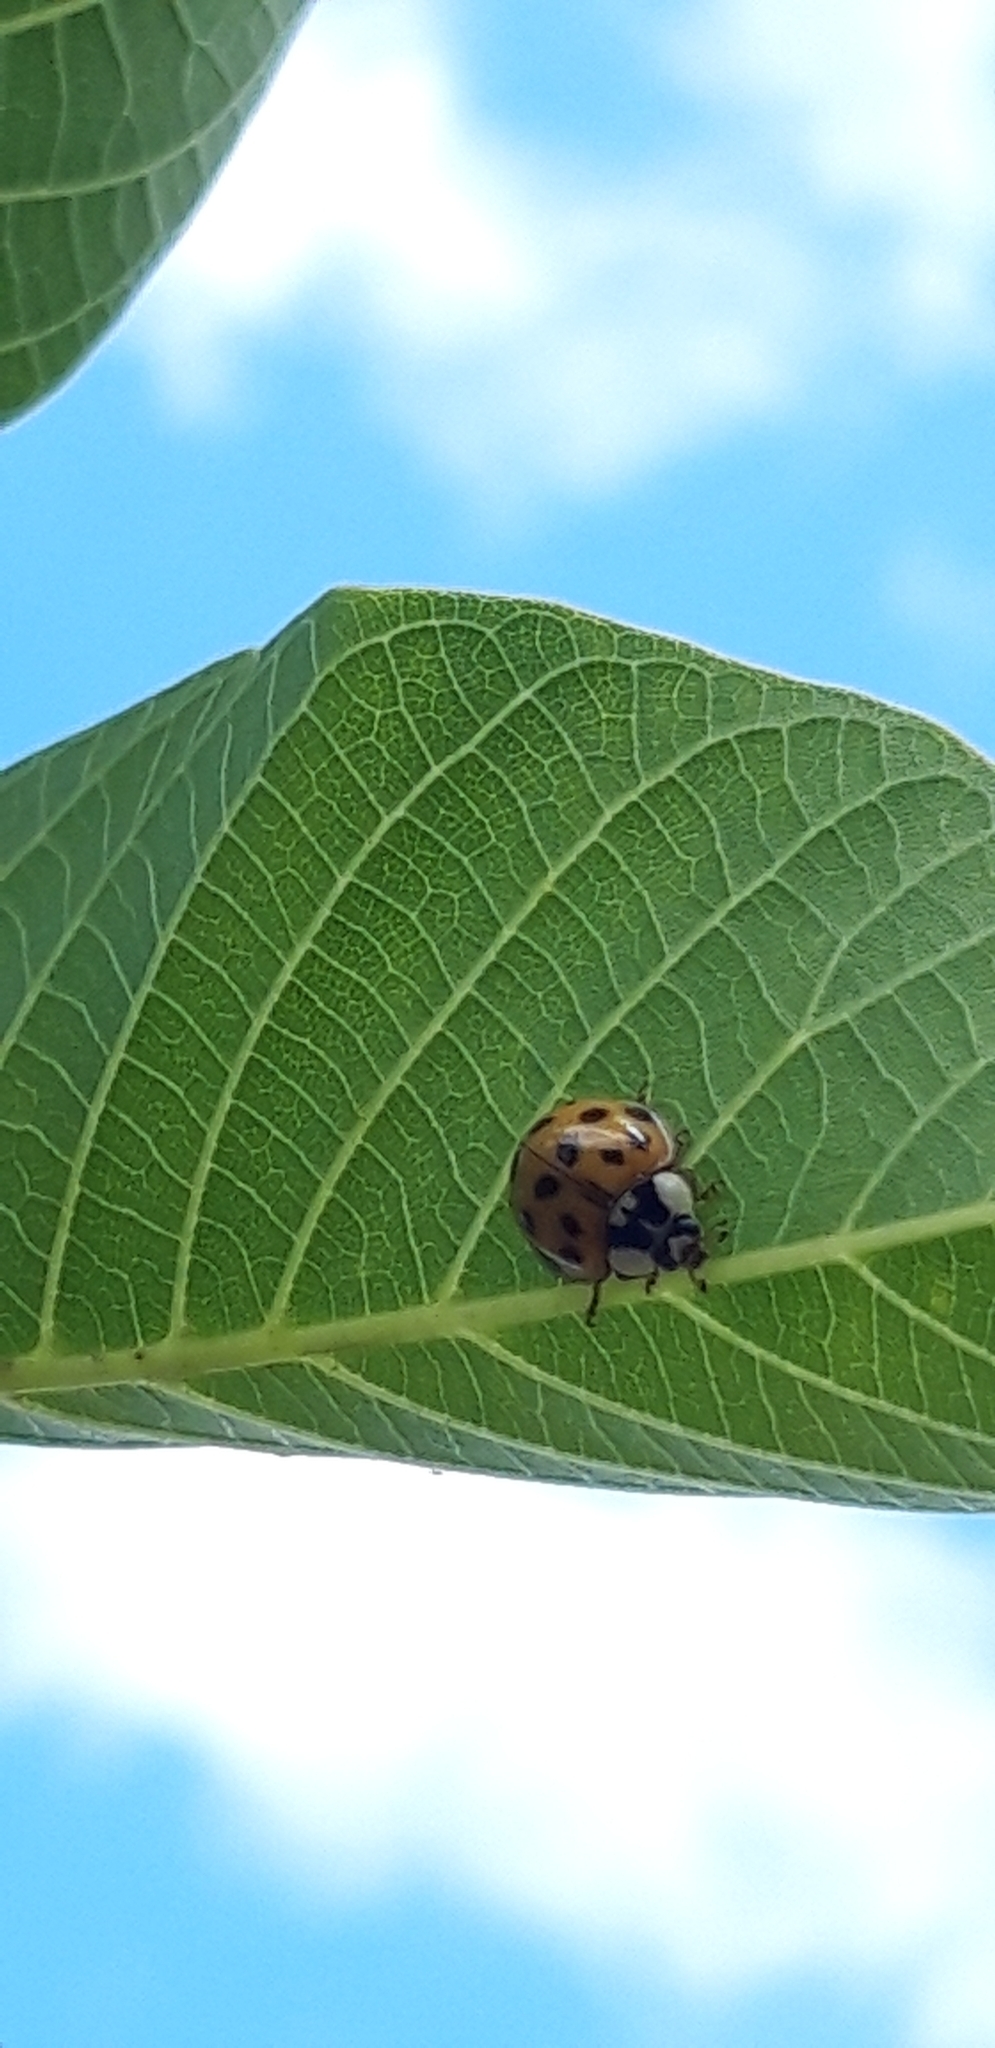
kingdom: Animalia
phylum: Arthropoda
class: Insecta
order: Coleoptera
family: Coccinellidae
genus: Harmonia
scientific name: Harmonia axyridis
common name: Harlequin ladybird
